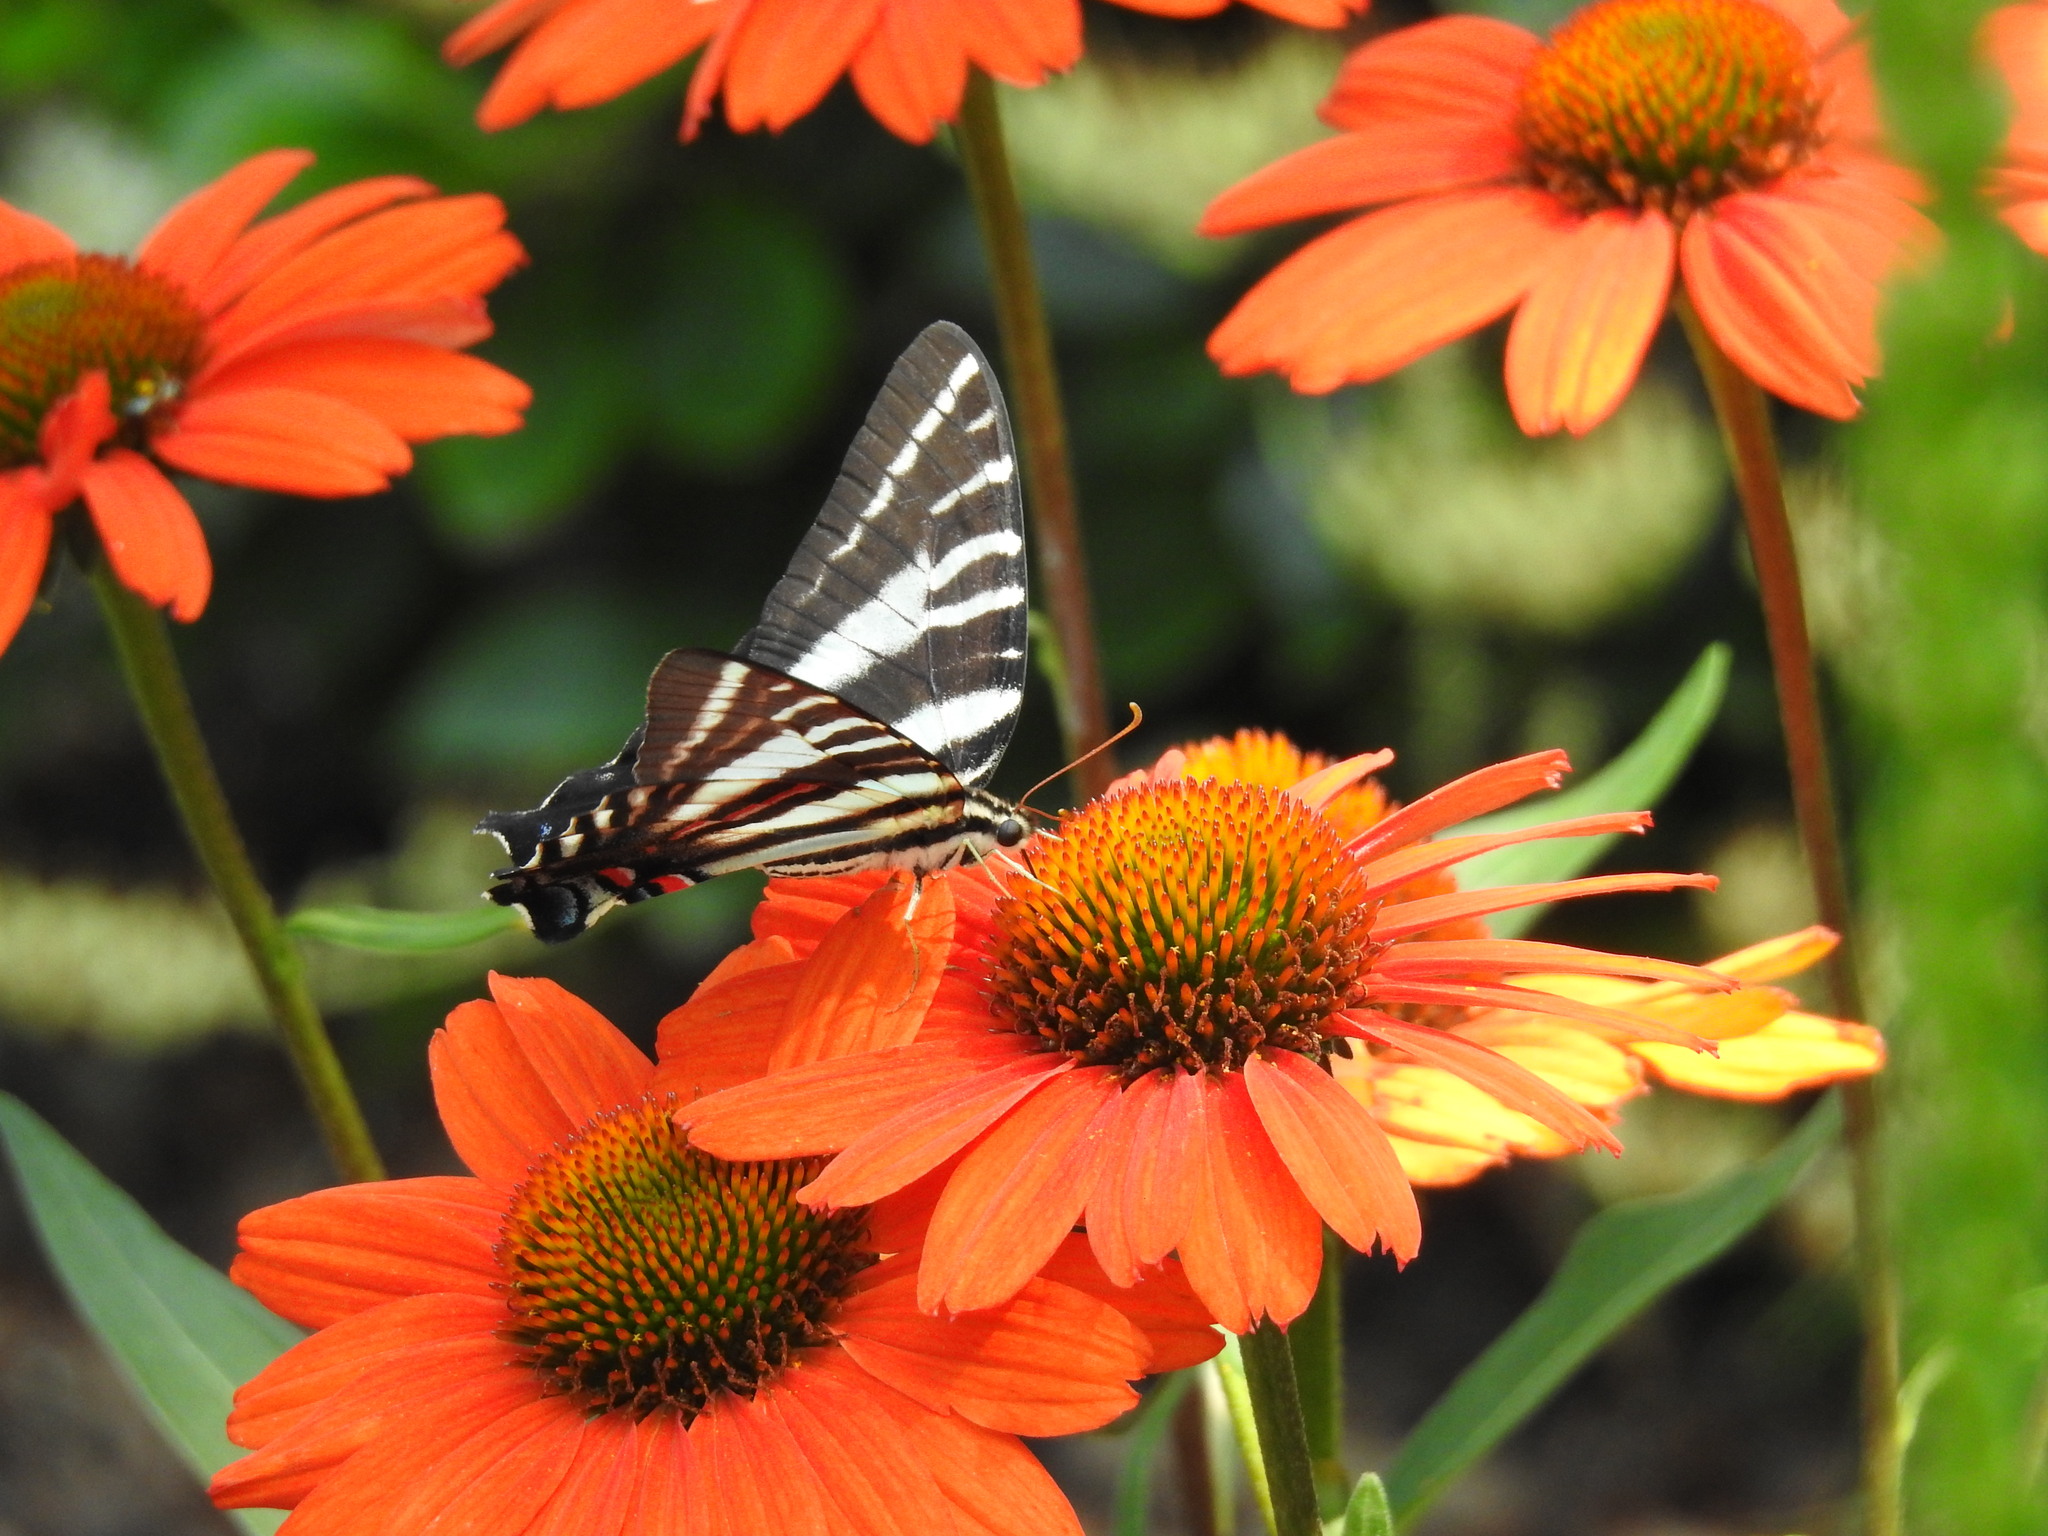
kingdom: Animalia
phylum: Arthropoda
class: Insecta
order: Lepidoptera
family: Papilionidae
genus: Protographium
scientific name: Protographium marcellus
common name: Zebra swallowtail
